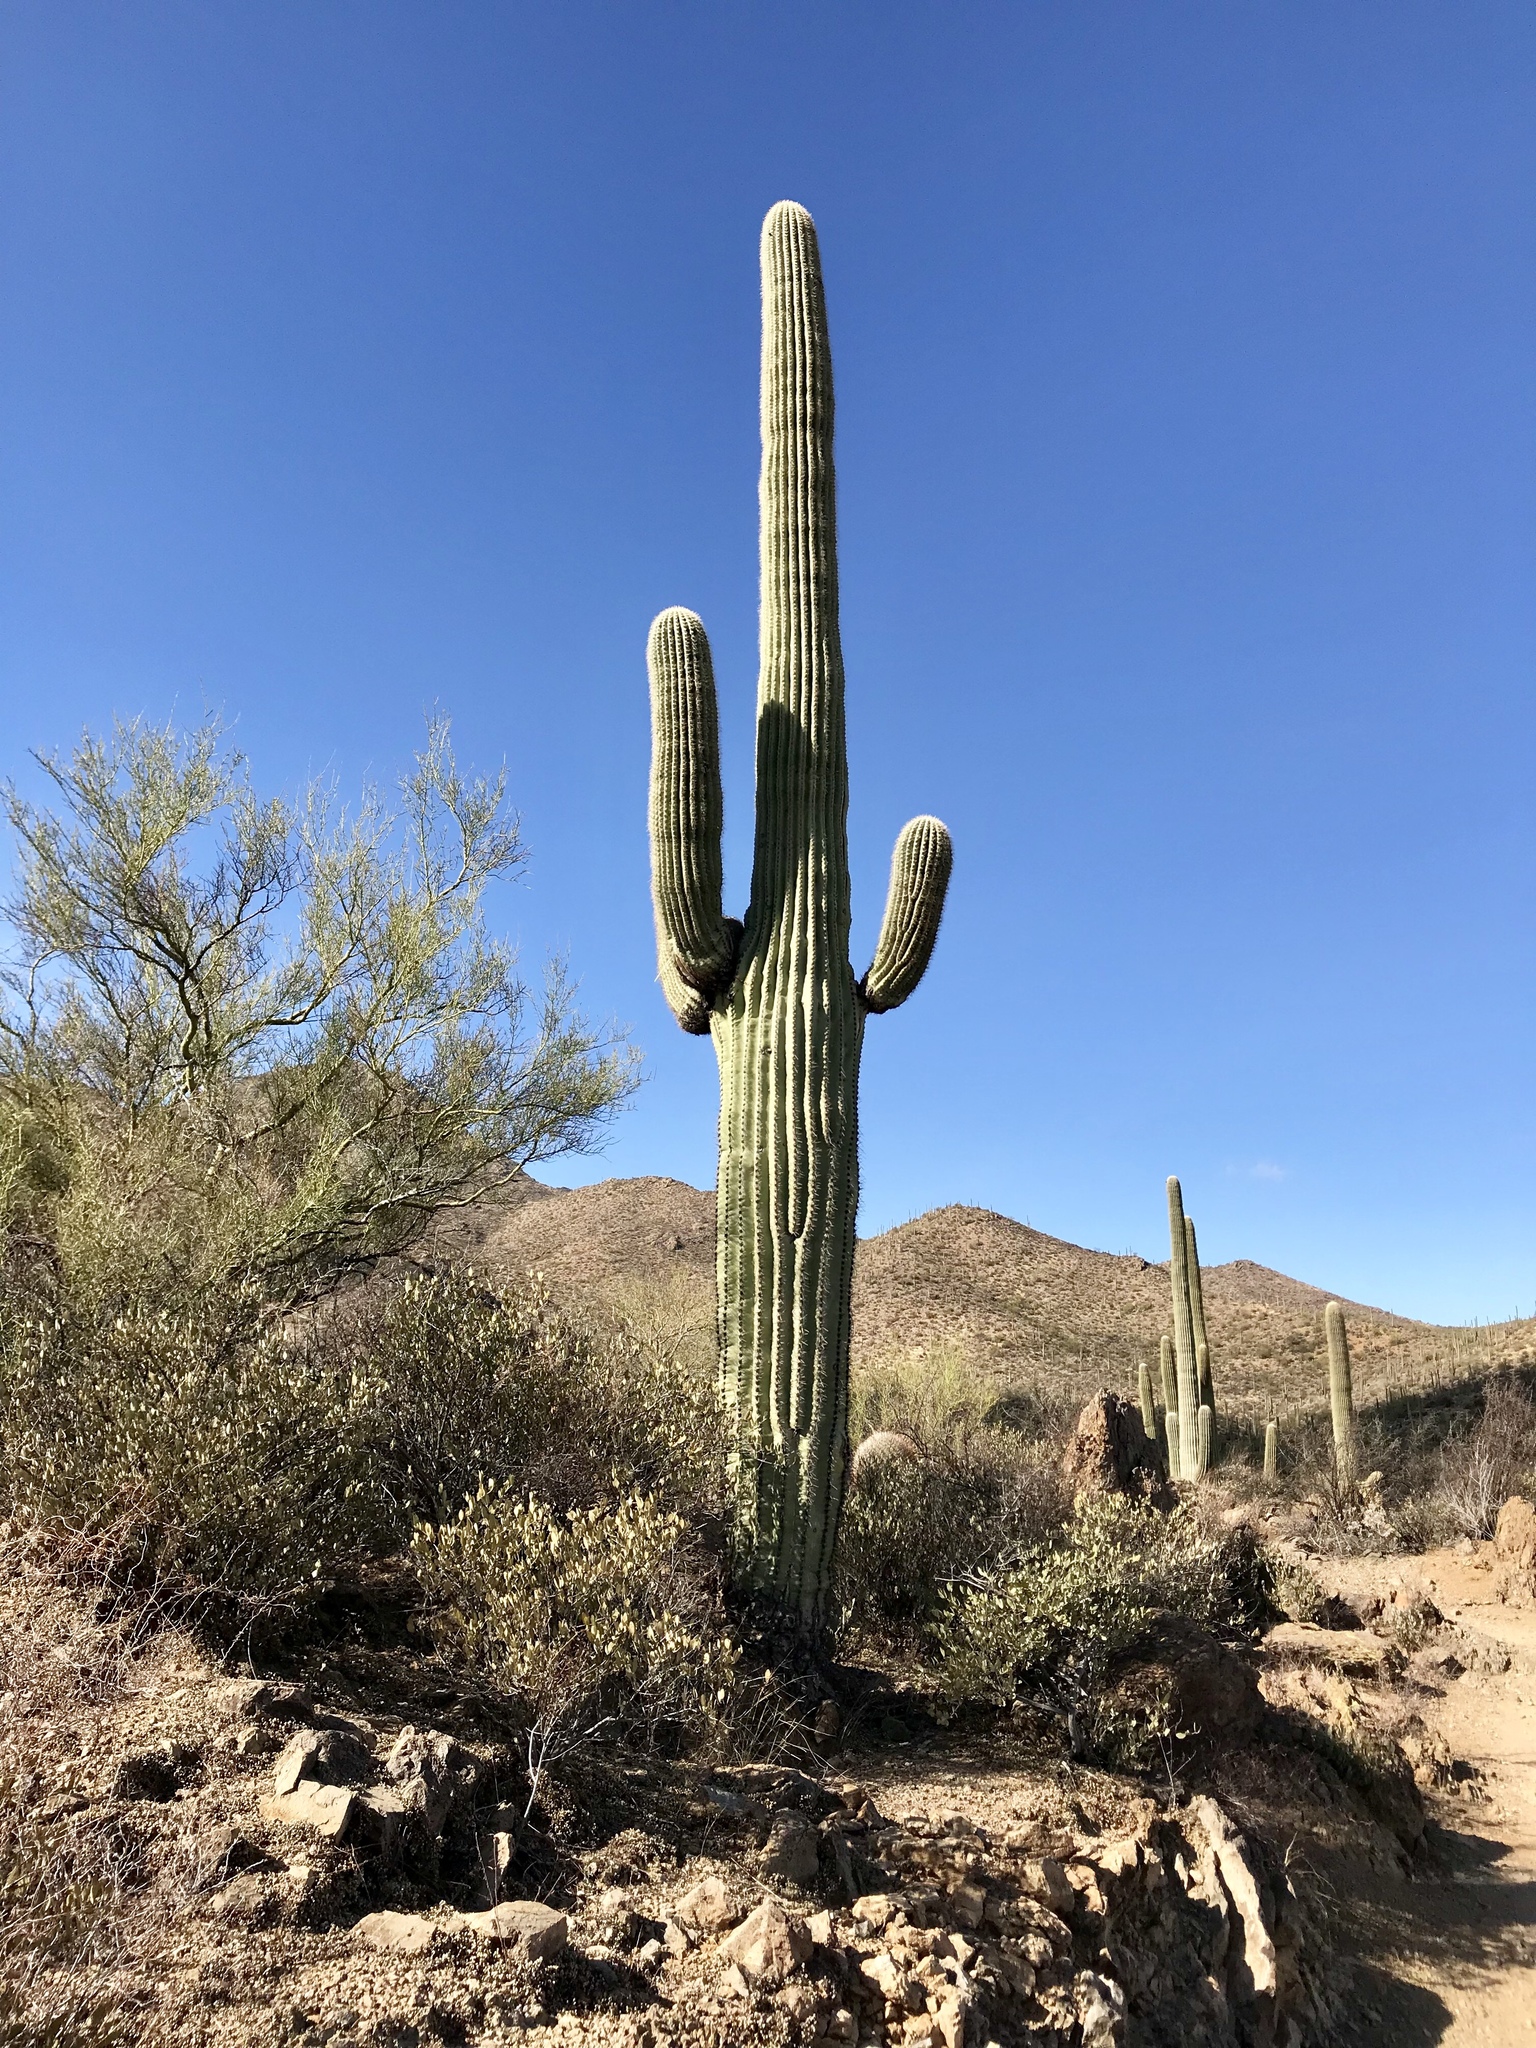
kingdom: Plantae
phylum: Tracheophyta
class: Magnoliopsida
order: Caryophyllales
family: Cactaceae
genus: Carnegiea
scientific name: Carnegiea gigantea
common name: Saguaro
